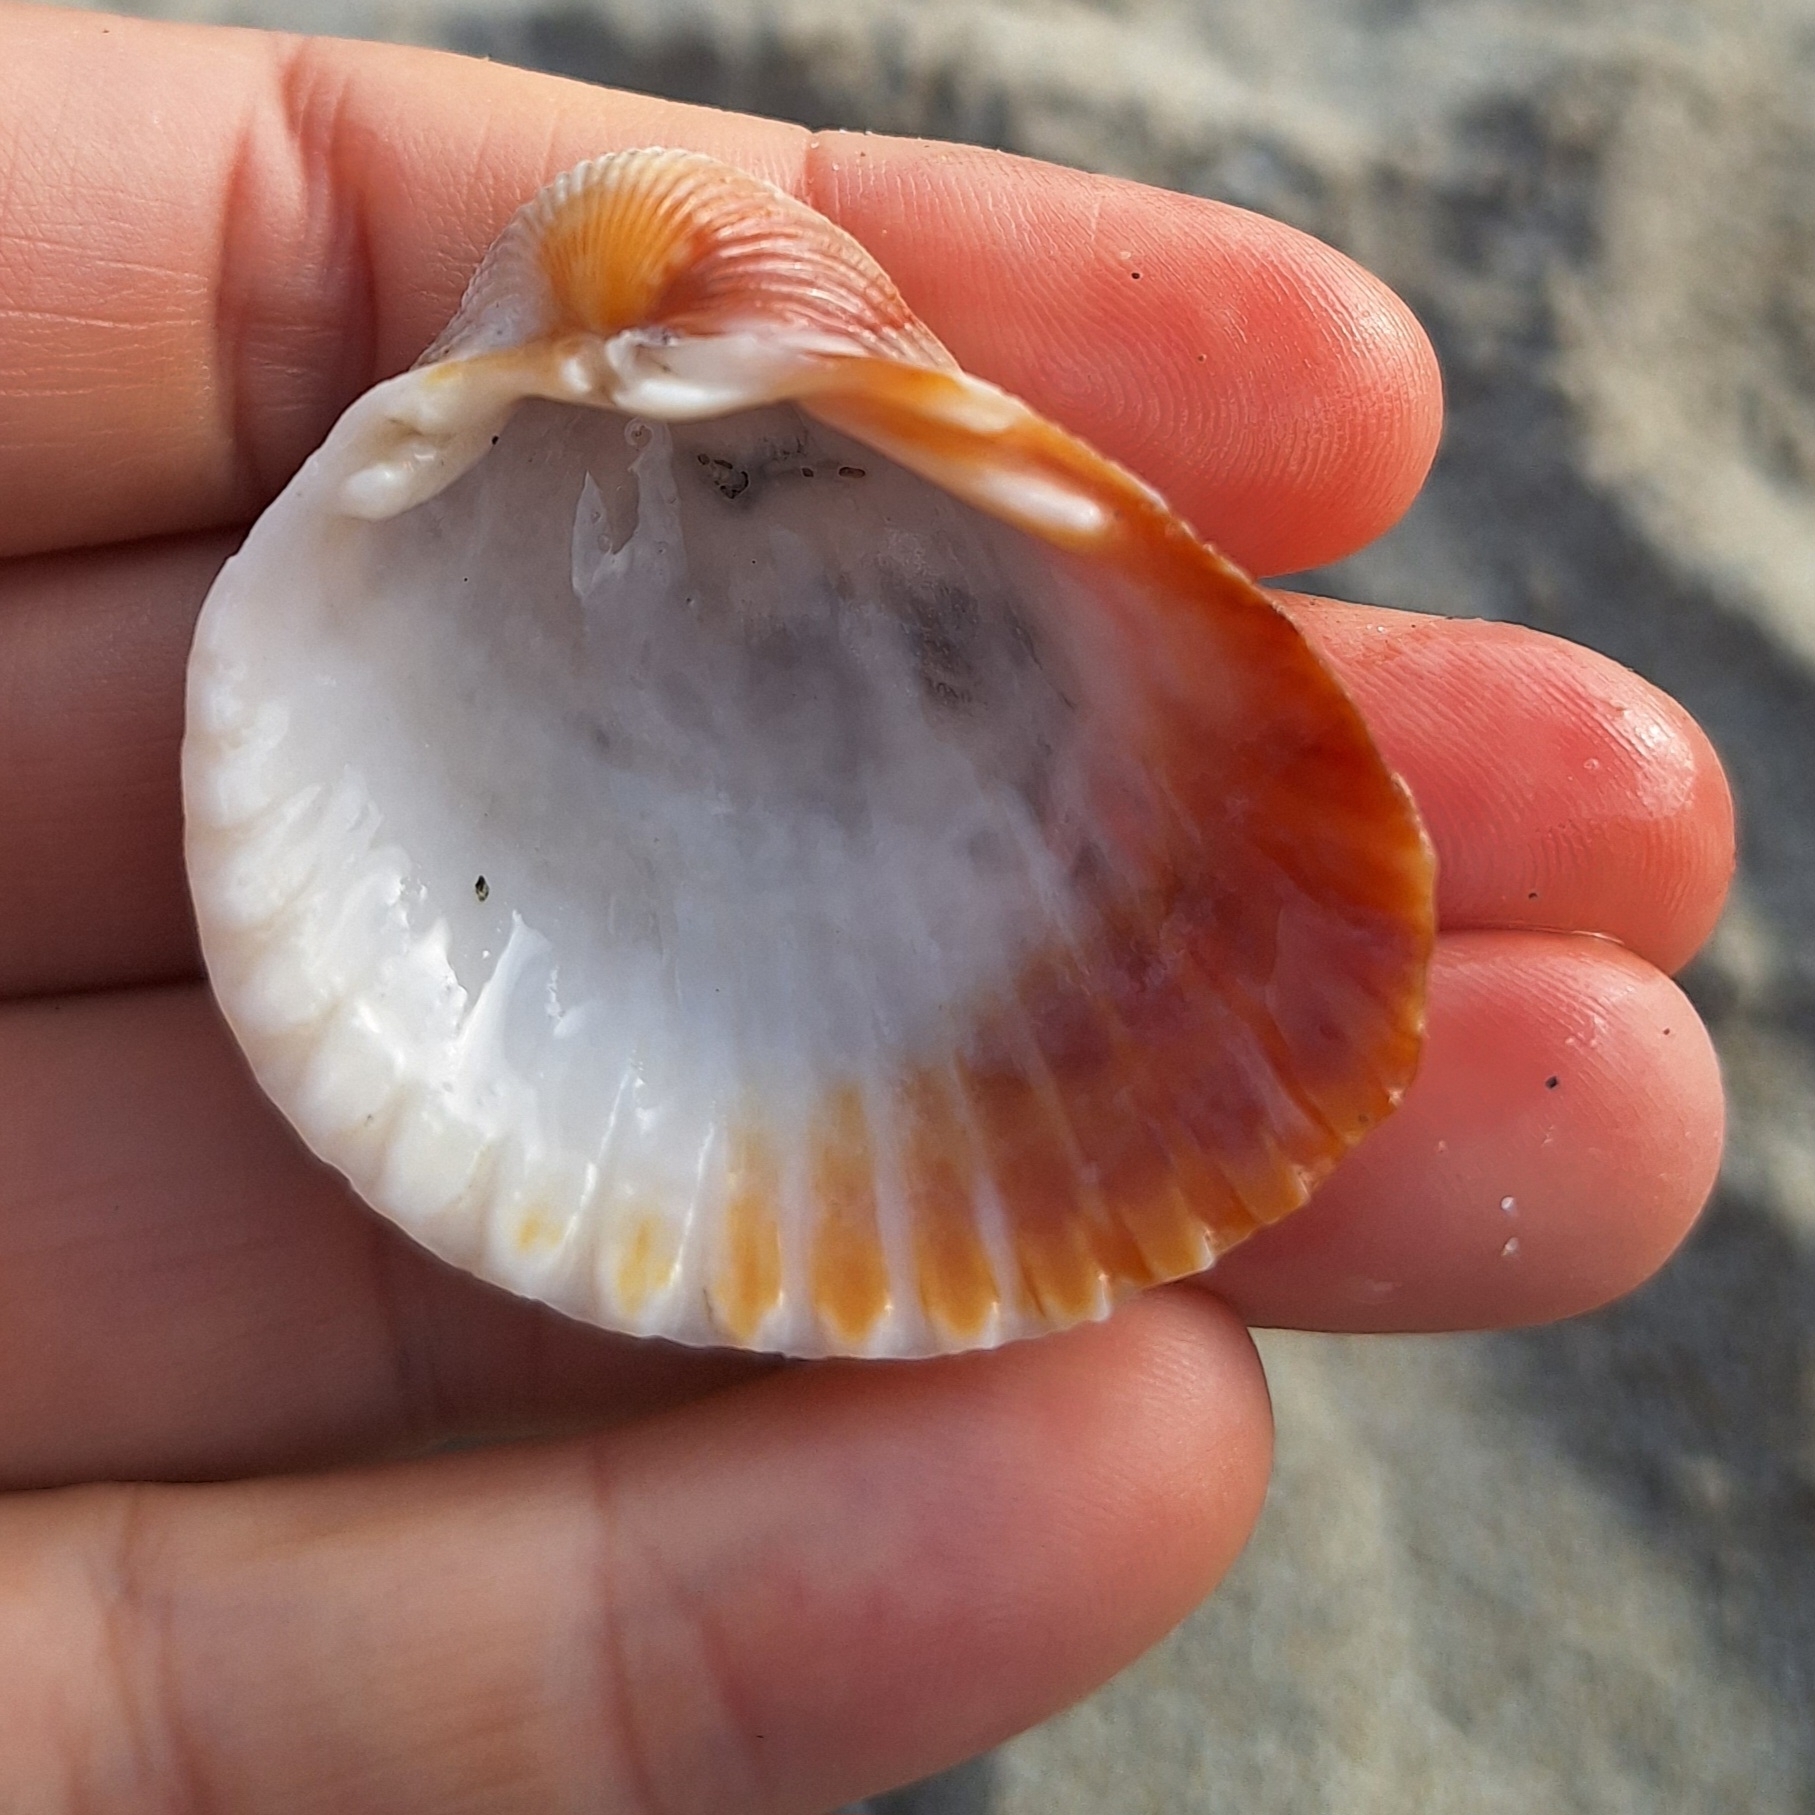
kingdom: Animalia
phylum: Mollusca
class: Bivalvia
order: Cardiida
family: Cardiidae
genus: Cerastoderma
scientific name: Cerastoderma glaucum
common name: Lagoon cockle
